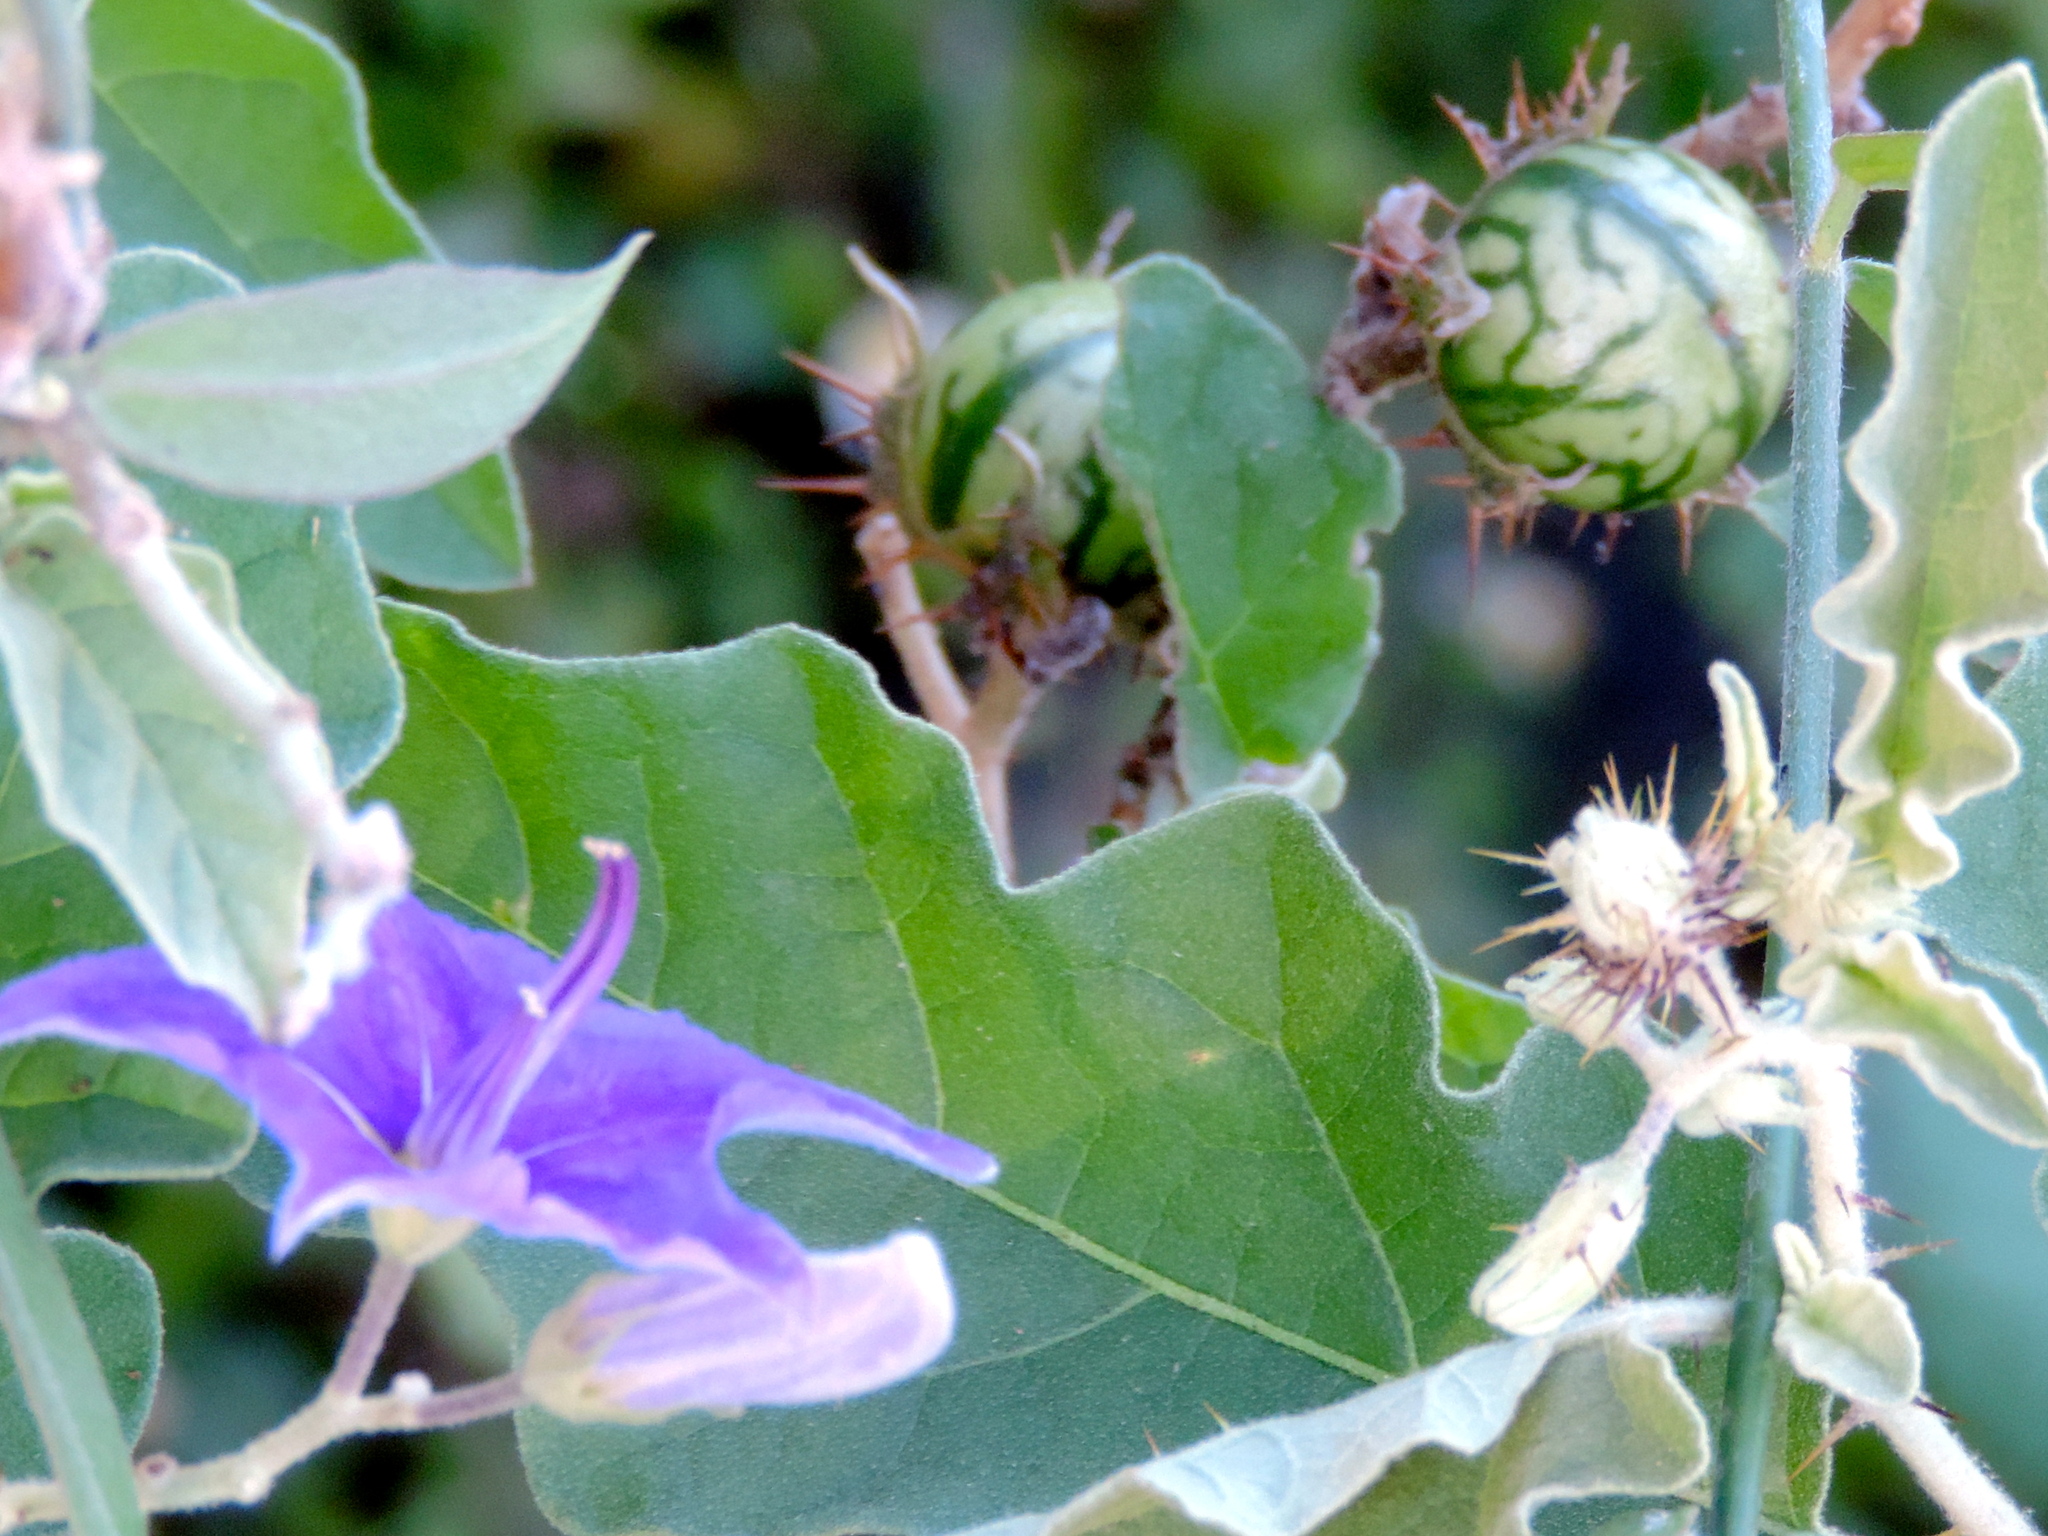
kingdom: Plantae
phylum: Tracheophyta
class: Magnoliopsida
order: Solanales
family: Solanaceae
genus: Solanum
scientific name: Solanum houstonii
